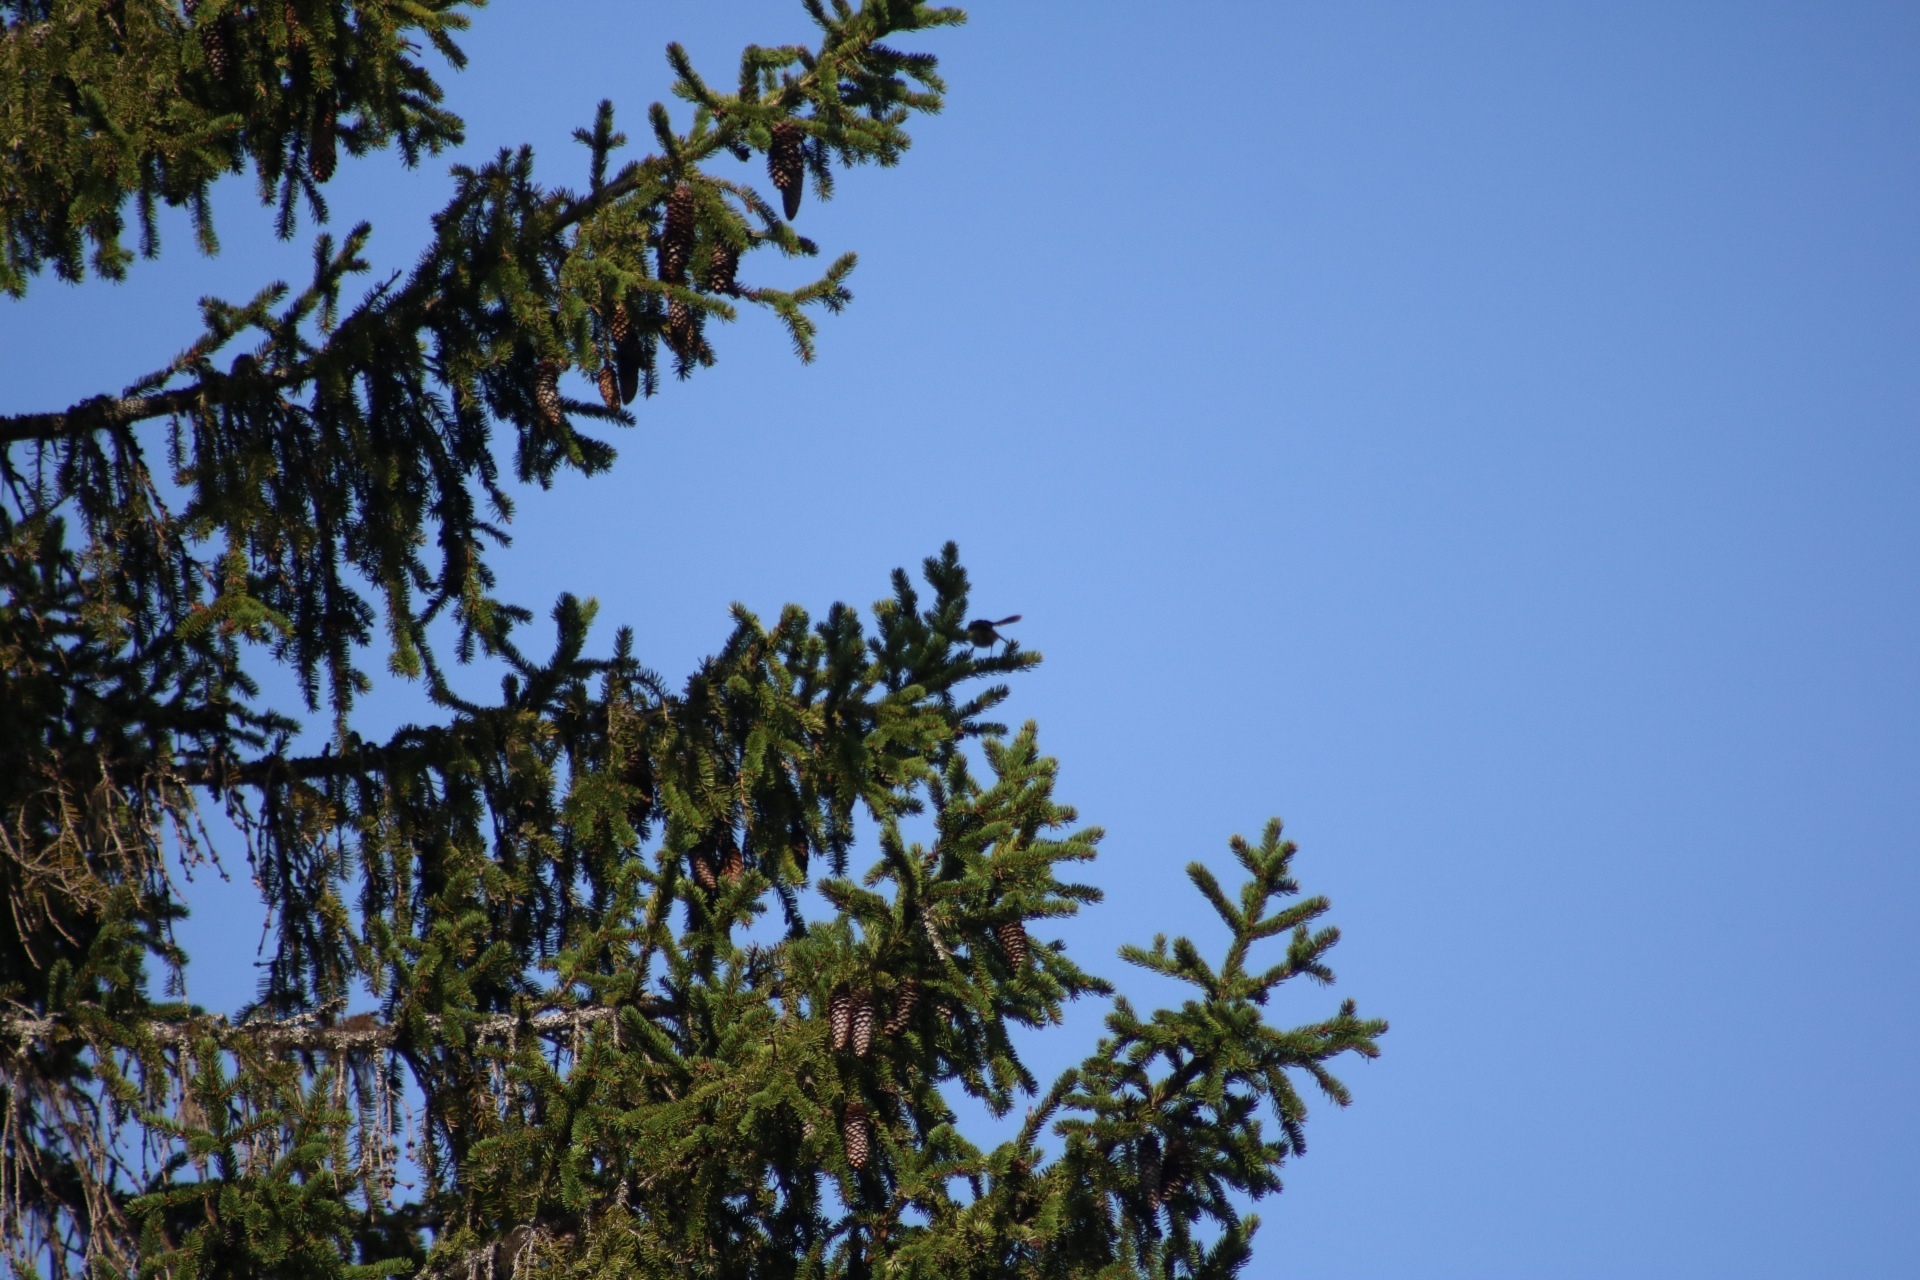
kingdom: Animalia
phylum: Chordata
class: Aves
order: Passeriformes
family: Fringillidae
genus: Fringilla
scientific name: Fringilla montifringilla
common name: Brambling
